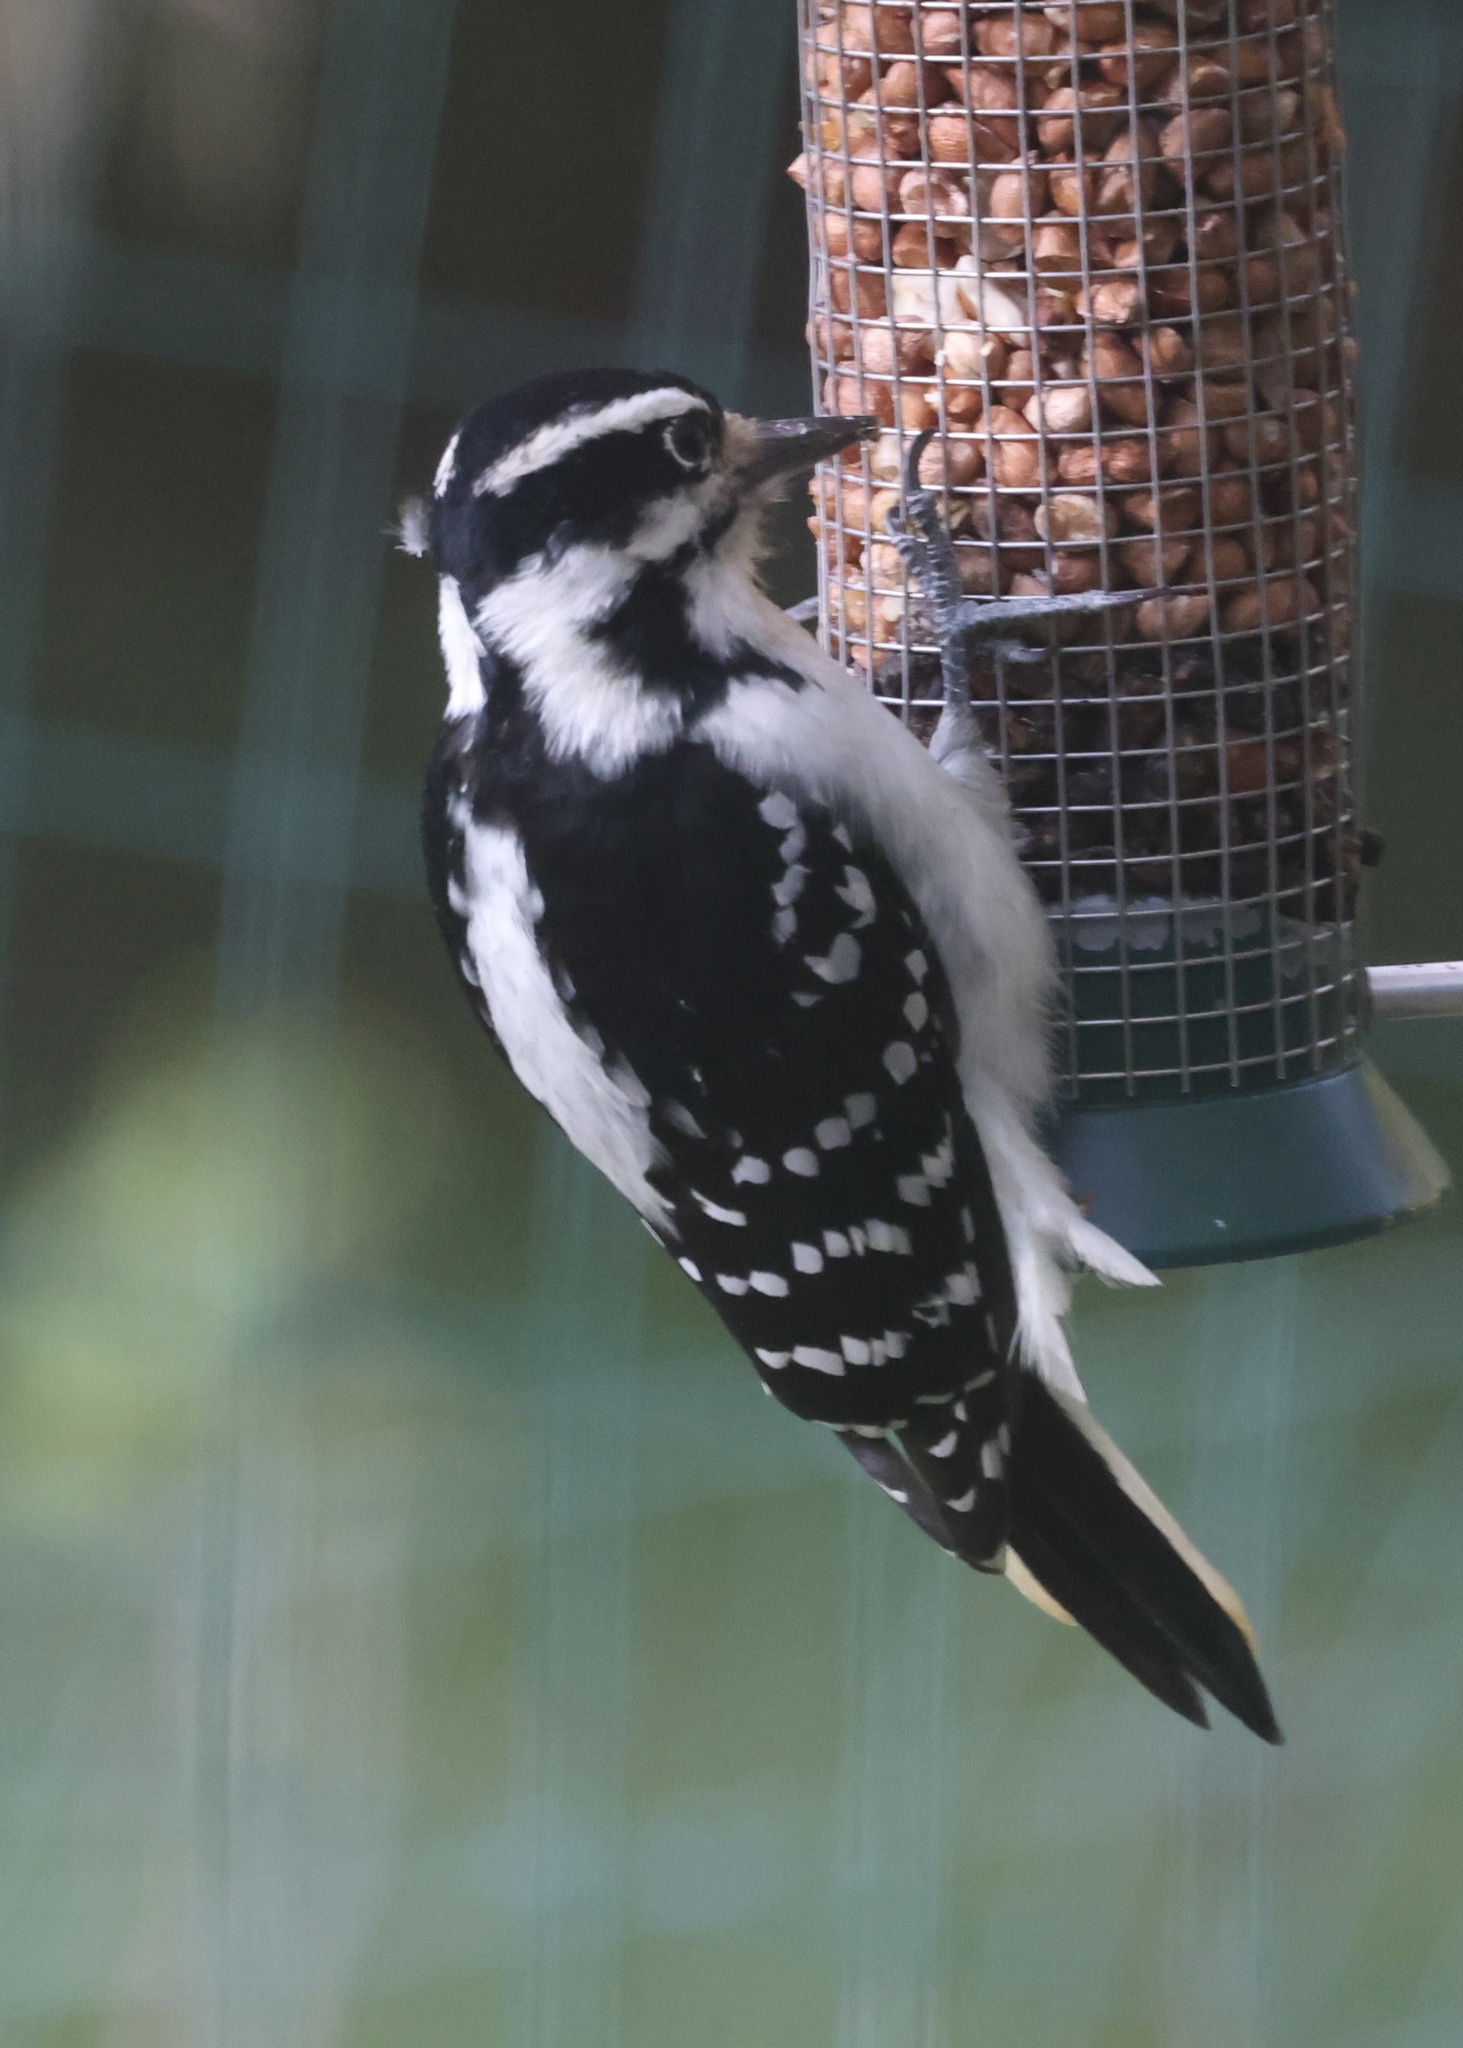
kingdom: Animalia
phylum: Chordata
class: Aves
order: Piciformes
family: Picidae
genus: Leuconotopicus
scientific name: Leuconotopicus villosus
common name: Hairy woodpecker
